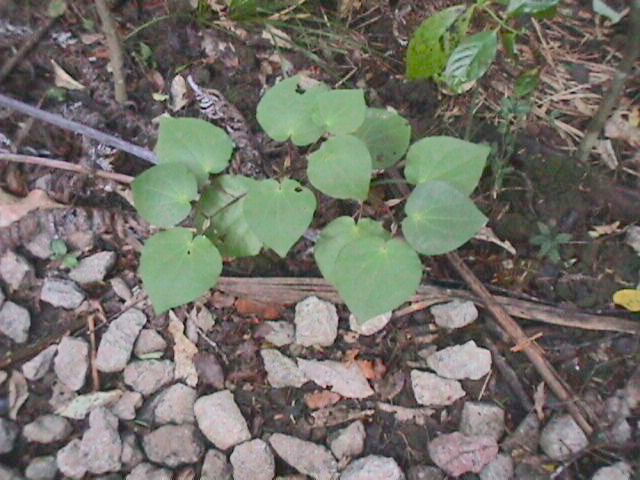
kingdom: Plantae
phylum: Tracheophyta
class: Magnoliopsida
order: Piperales
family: Piperaceae
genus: Macropiper
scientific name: Macropiper excelsum
